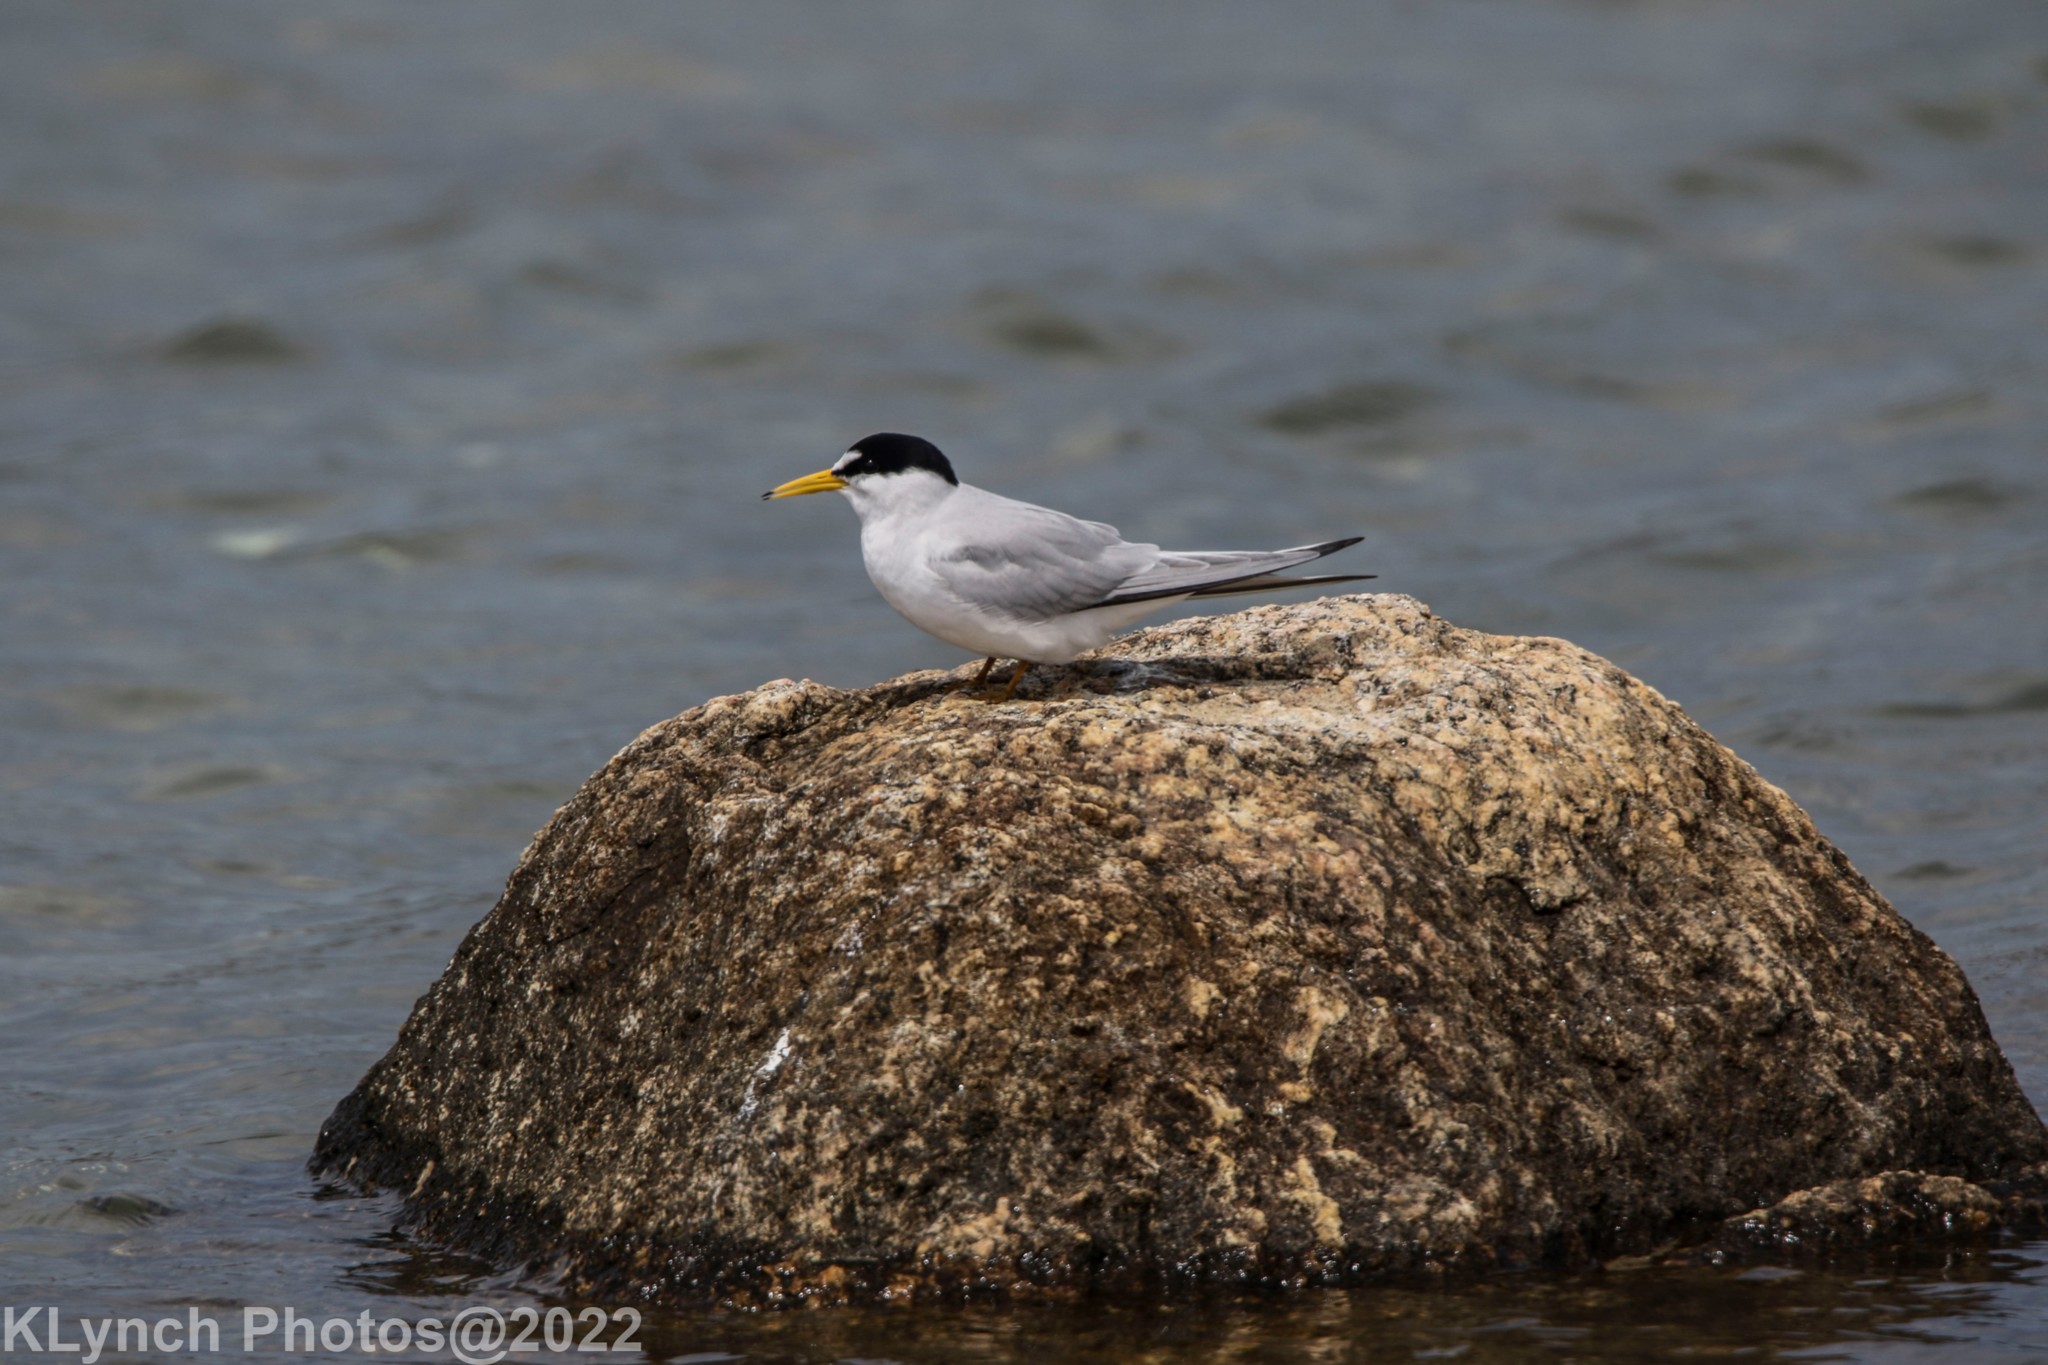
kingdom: Animalia
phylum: Chordata
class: Aves
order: Charadriiformes
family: Laridae
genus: Sternula
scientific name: Sternula antillarum
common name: Least tern
